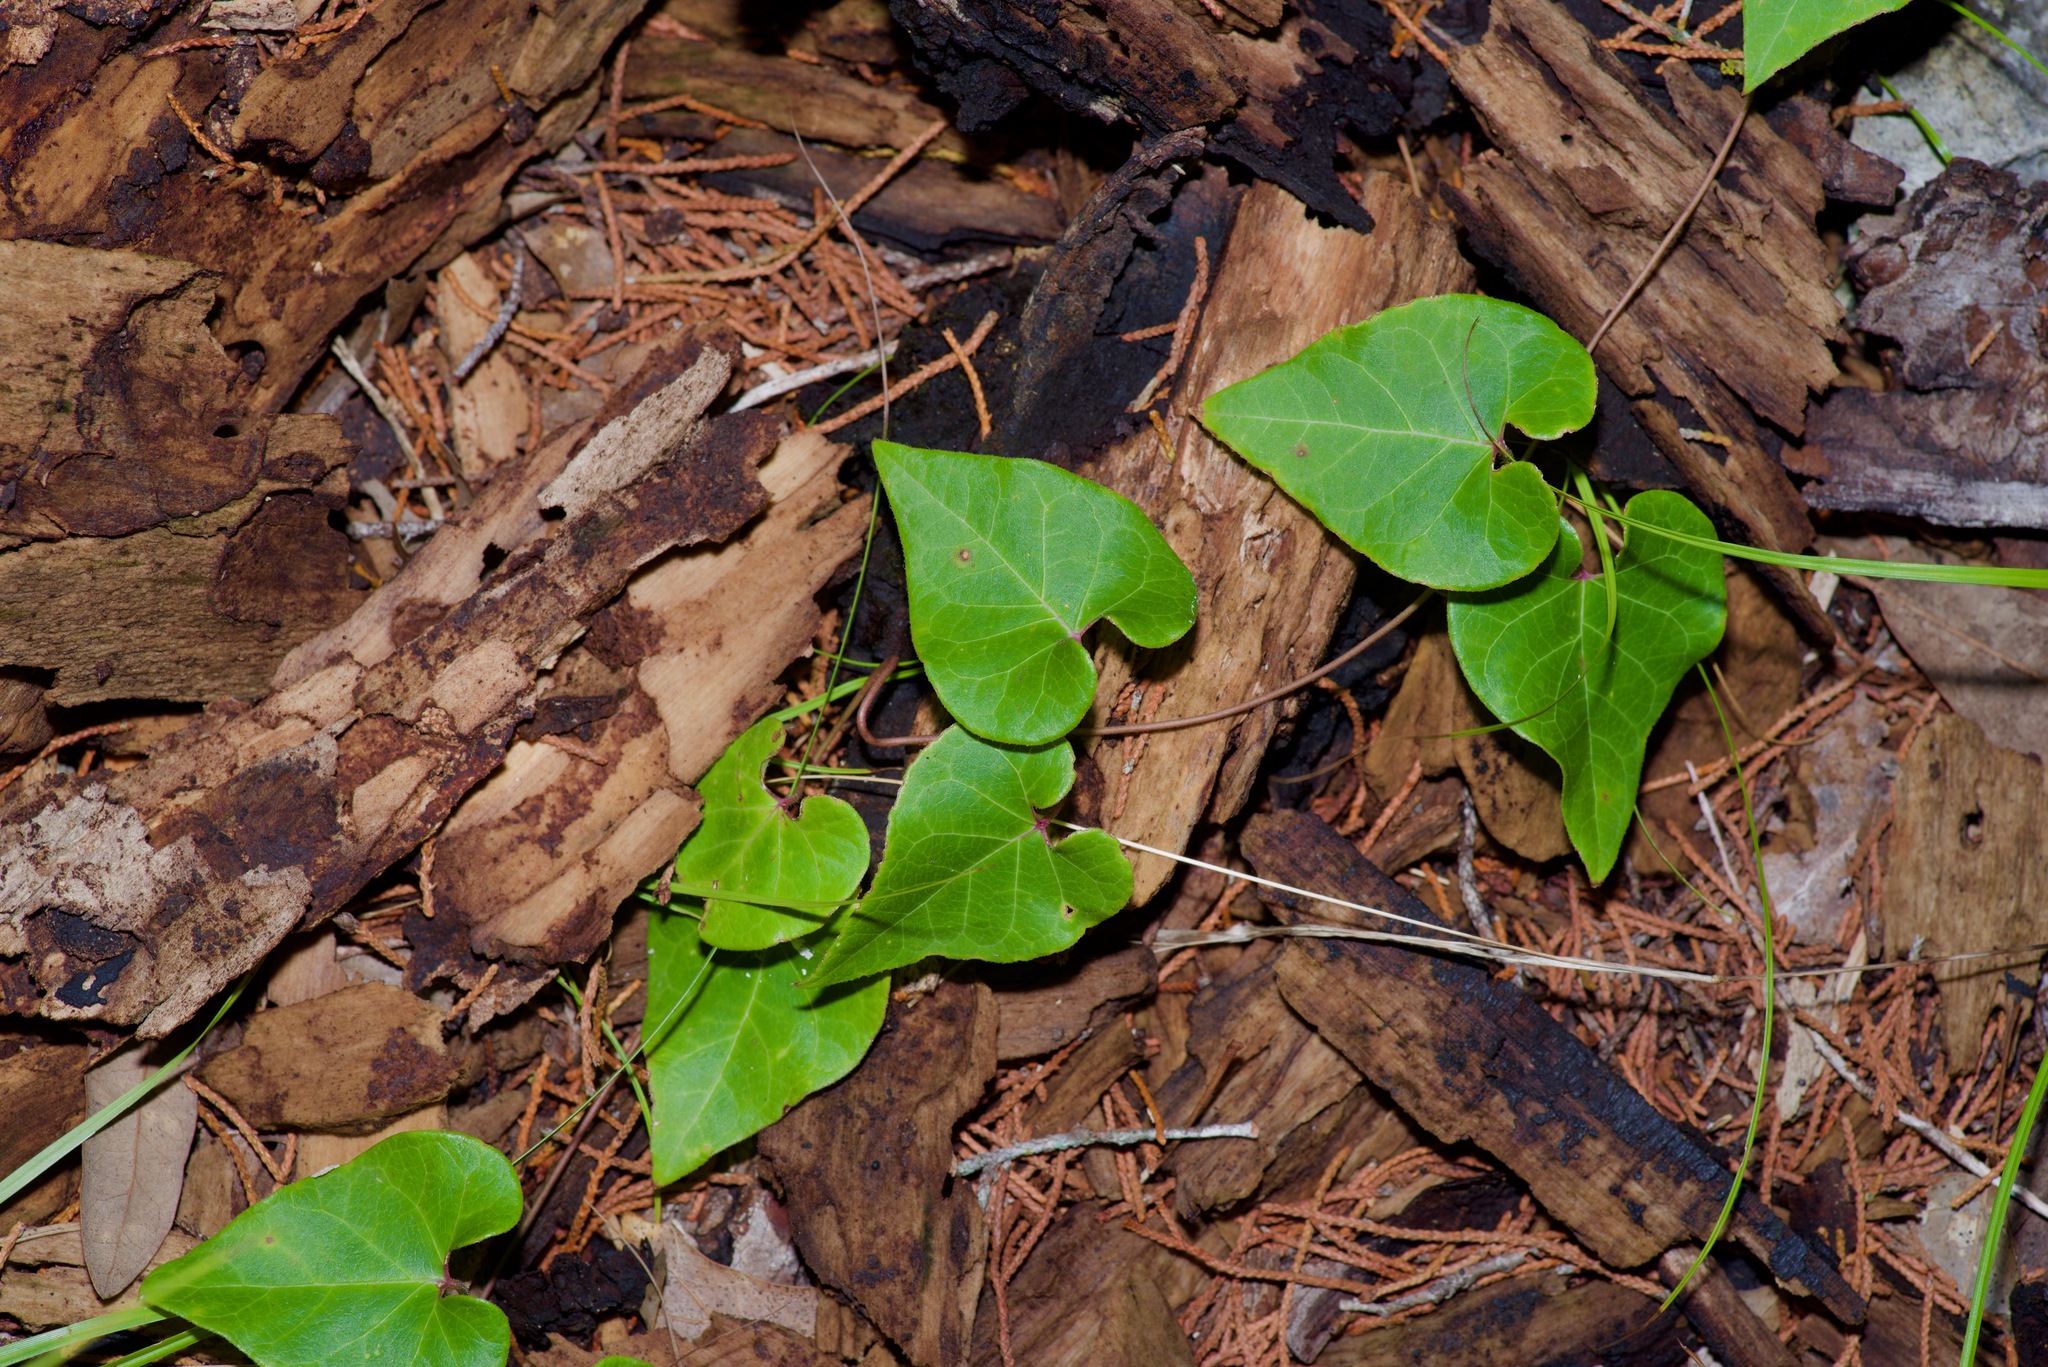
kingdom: Plantae
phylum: Tracheophyta
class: Magnoliopsida
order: Gentianales
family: Apocynaceae
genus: Matelea
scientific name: Matelea edwardsensis
